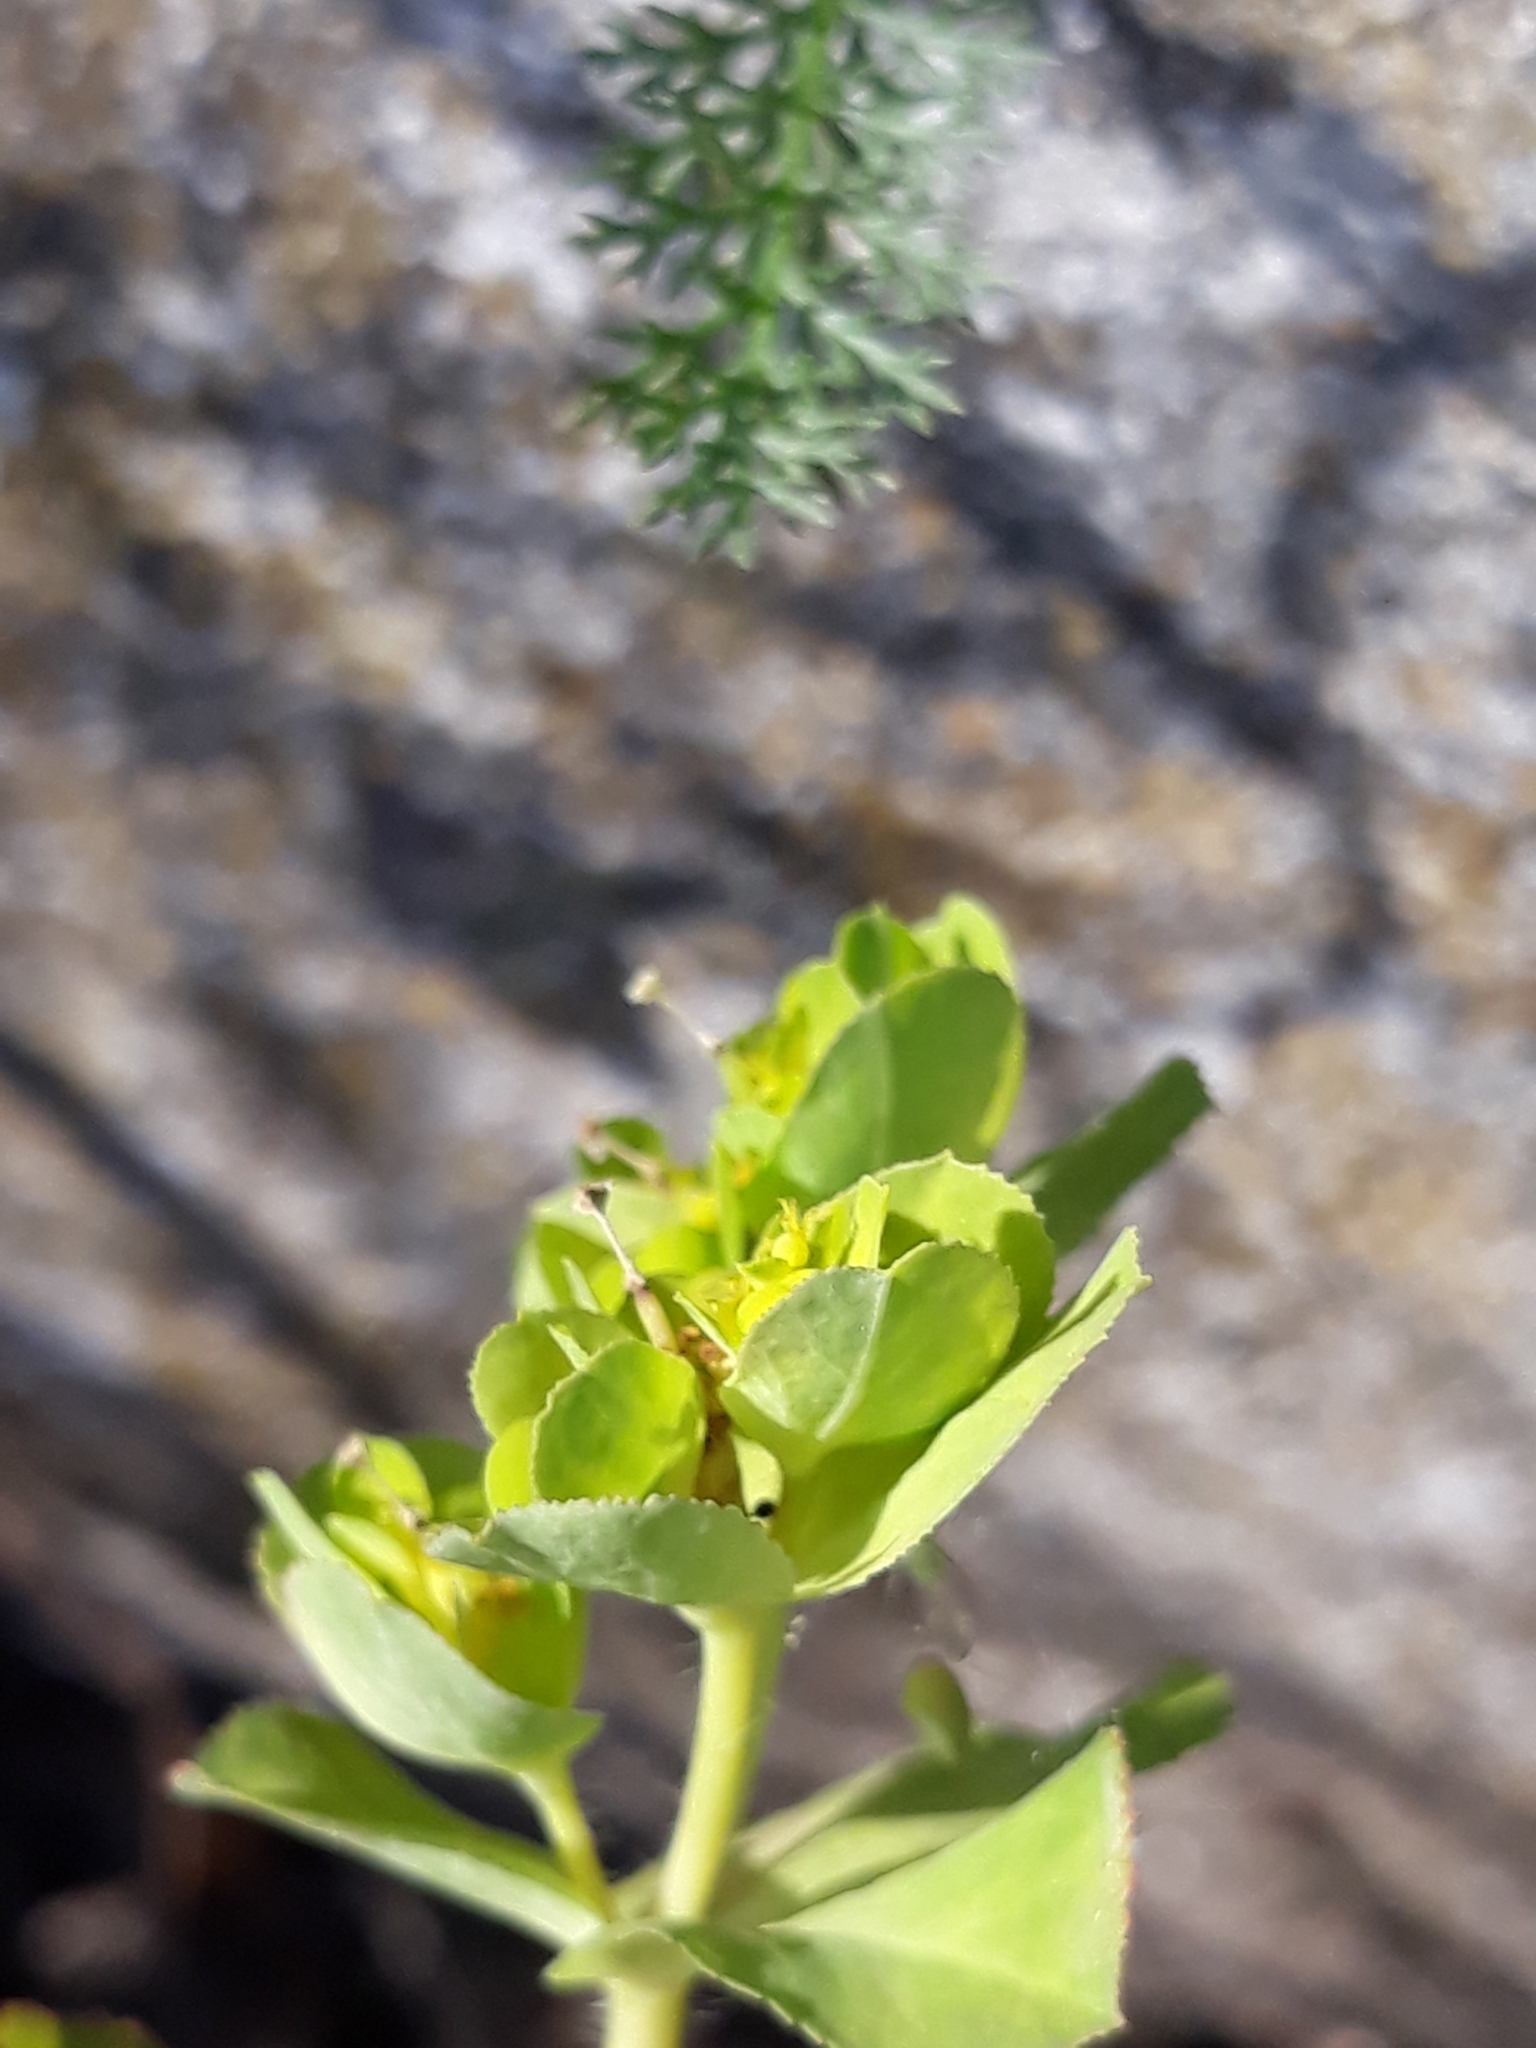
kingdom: Plantae
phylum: Tracheophyta
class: Magnoliopsida
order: Malpighiales
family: Euphorbiaceae
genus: Euphorbia
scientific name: Euphorbia helioscopia
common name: Sun spurge
